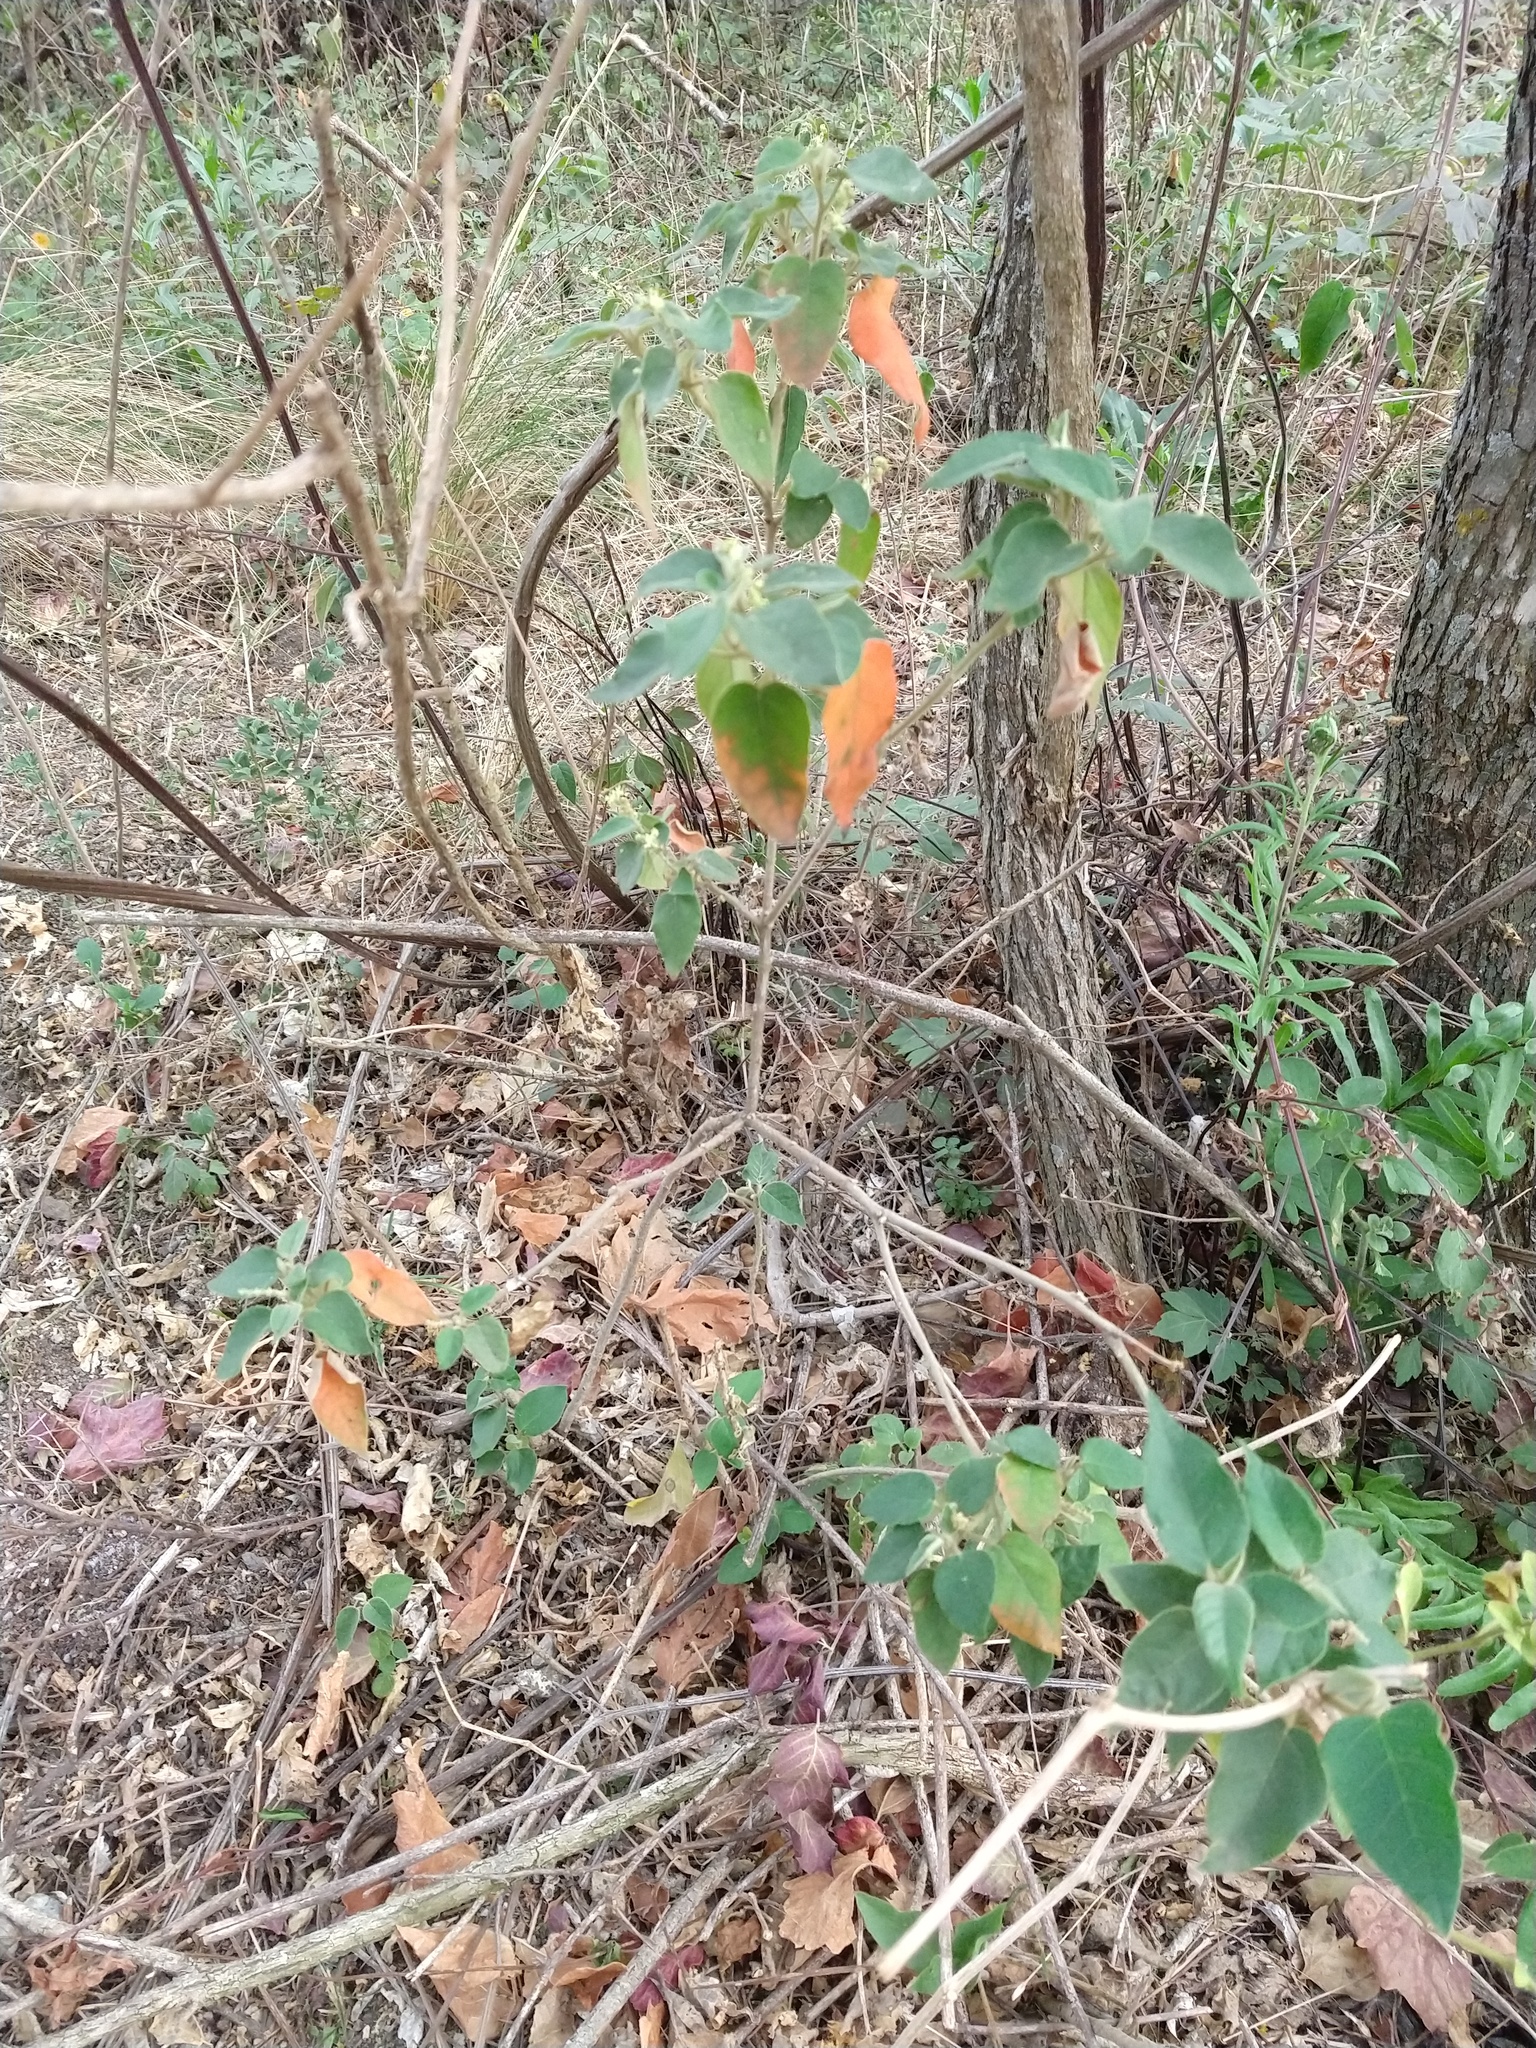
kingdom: Plantae
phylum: Tracheophyta
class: Magnoliopsida
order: Malpighiales
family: Euphorbiaceae
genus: Croton
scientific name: Croton lachnostachyus
